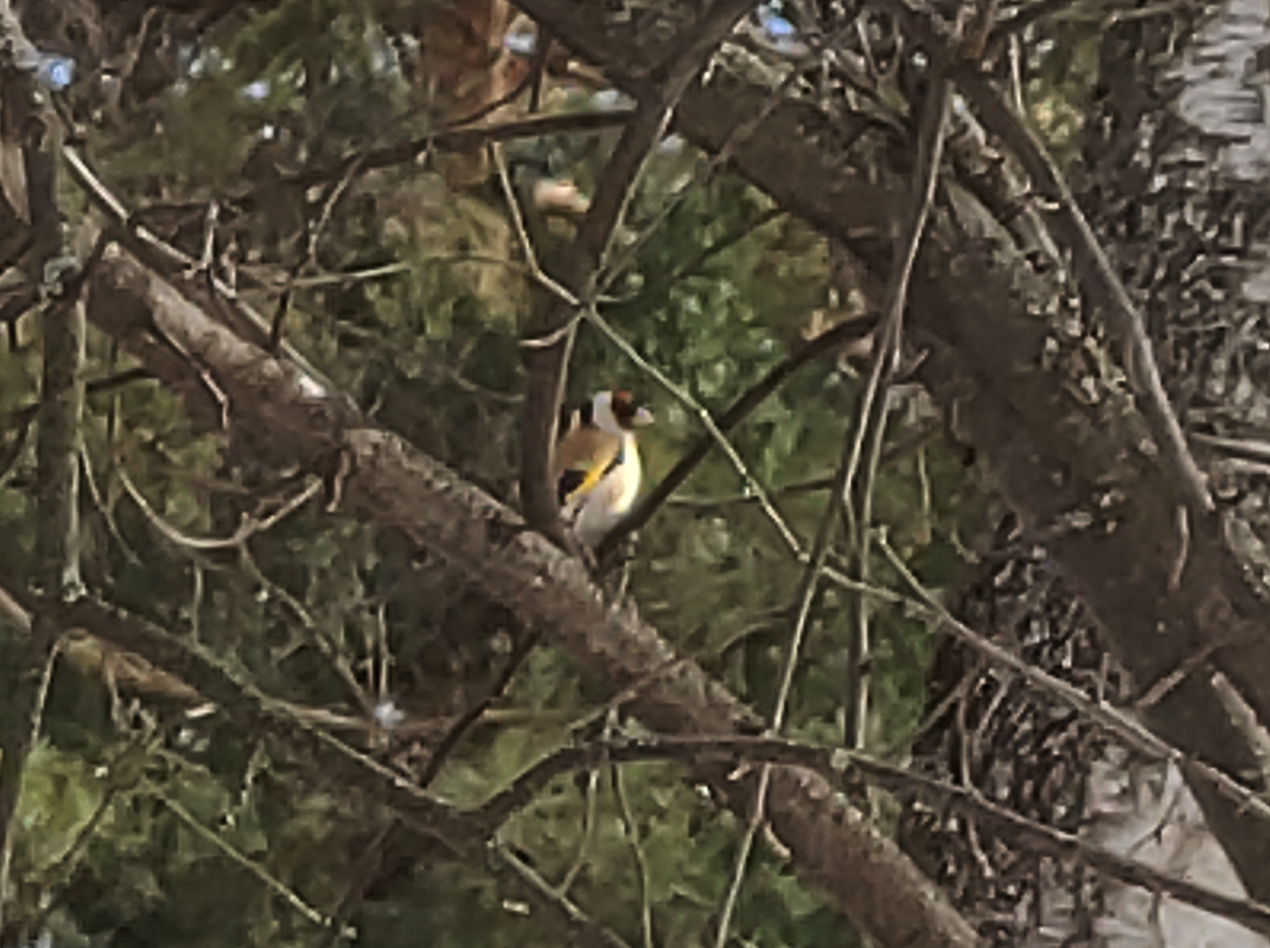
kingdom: Animalia
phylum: Chordata
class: Aves
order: Passeriformes
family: Fringillidae
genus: Carduelis
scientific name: Carduelis carduelis
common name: European goldfinch
